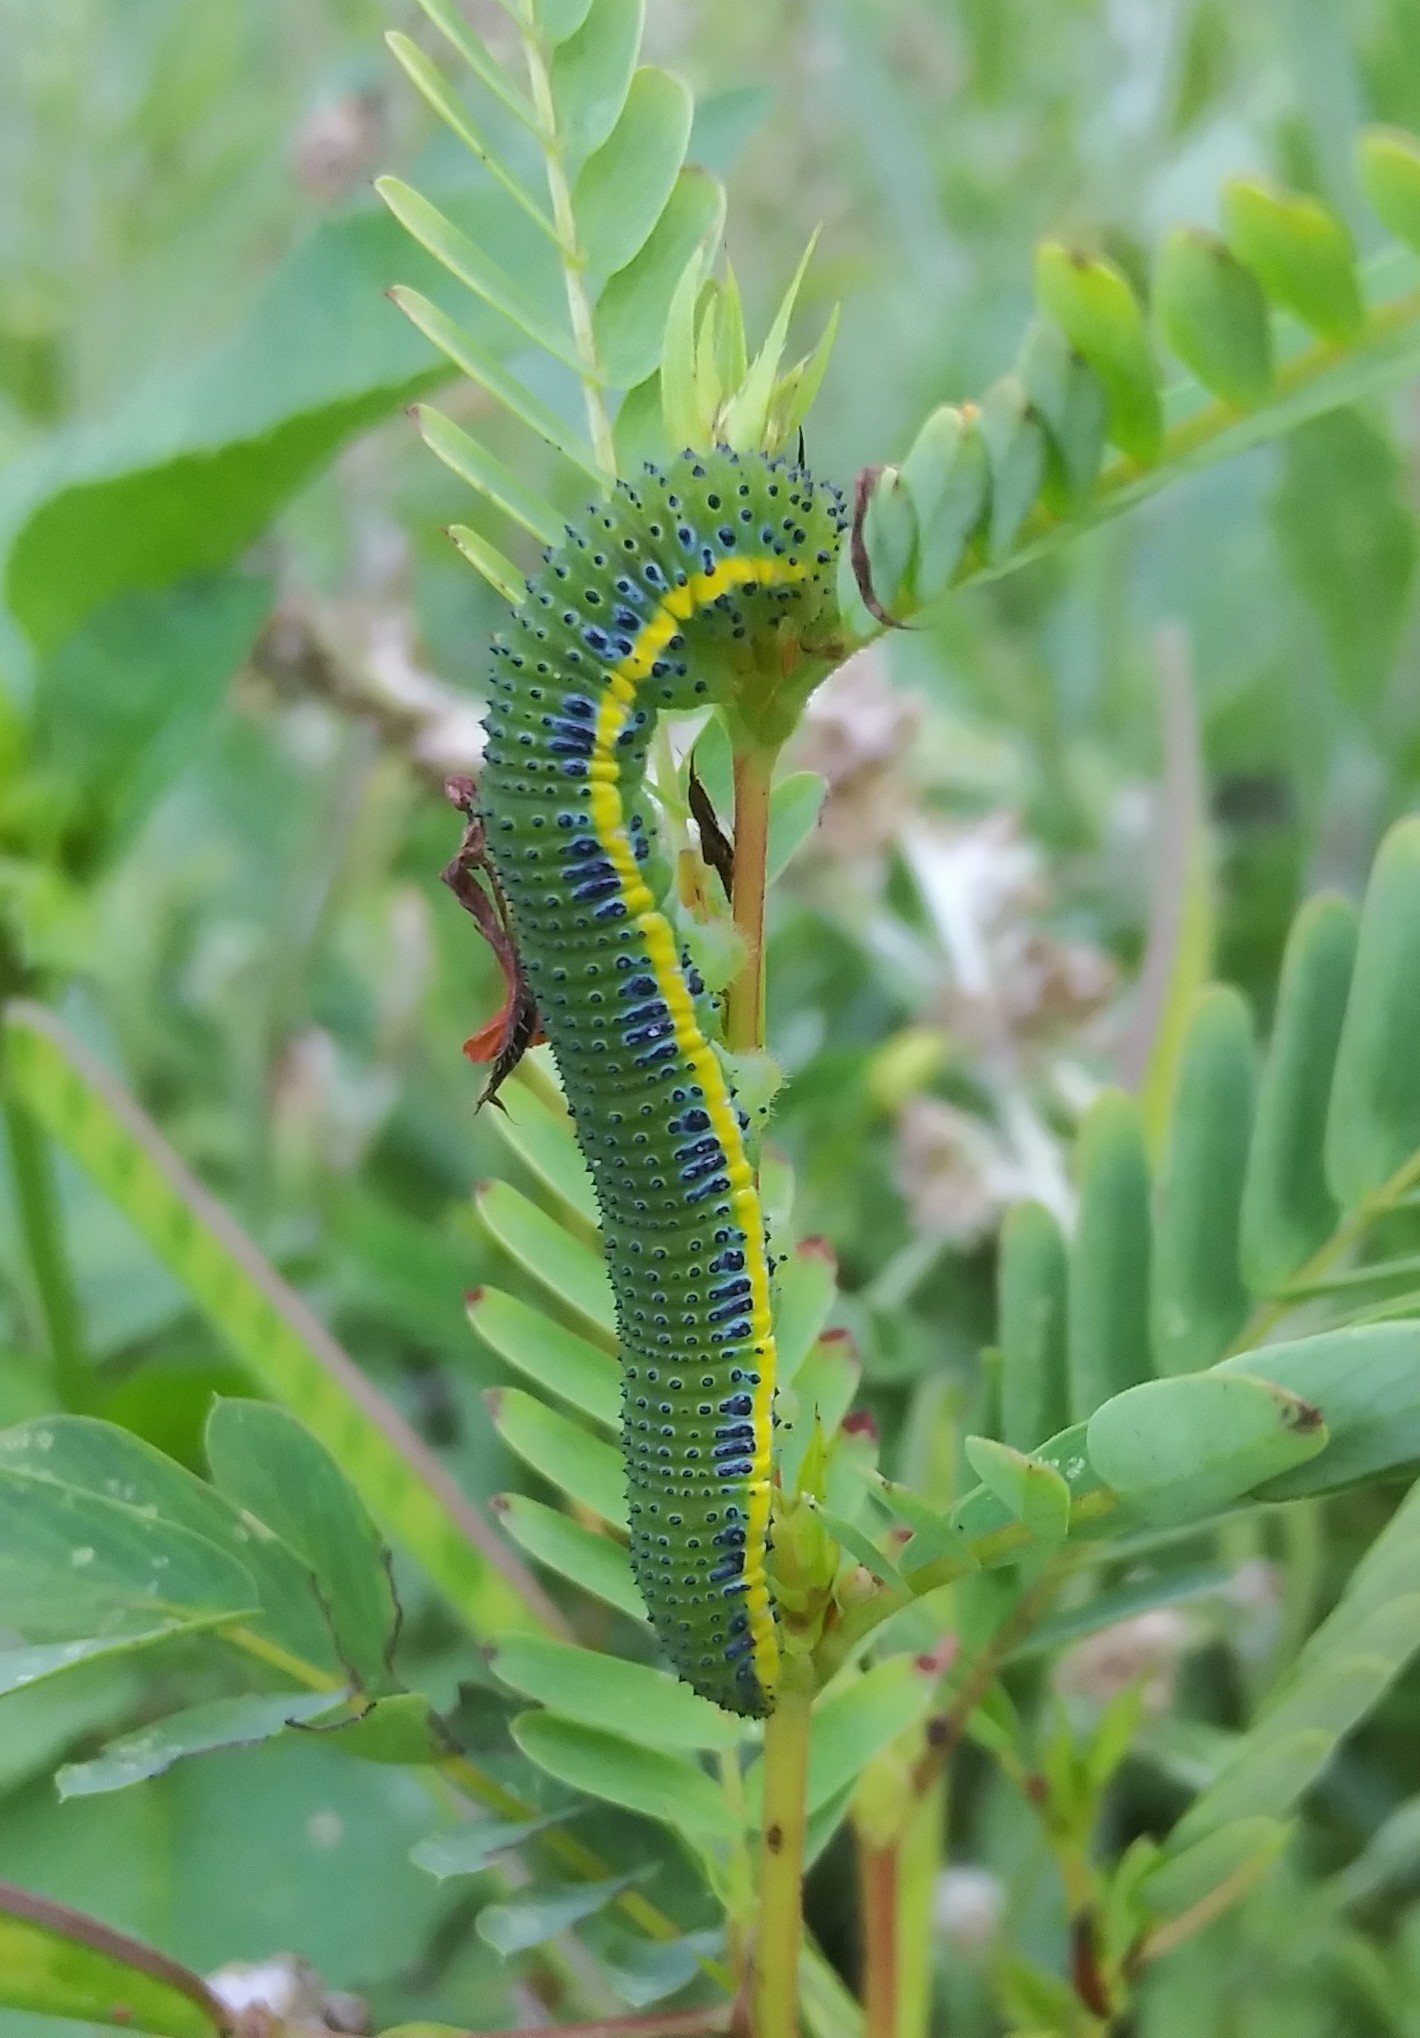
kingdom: Animalia
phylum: Arthropoda
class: Insecta
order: Lepidoptera
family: Pieridae
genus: Phoebis
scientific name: Phoebis sennae
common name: Cloudless sulphur
